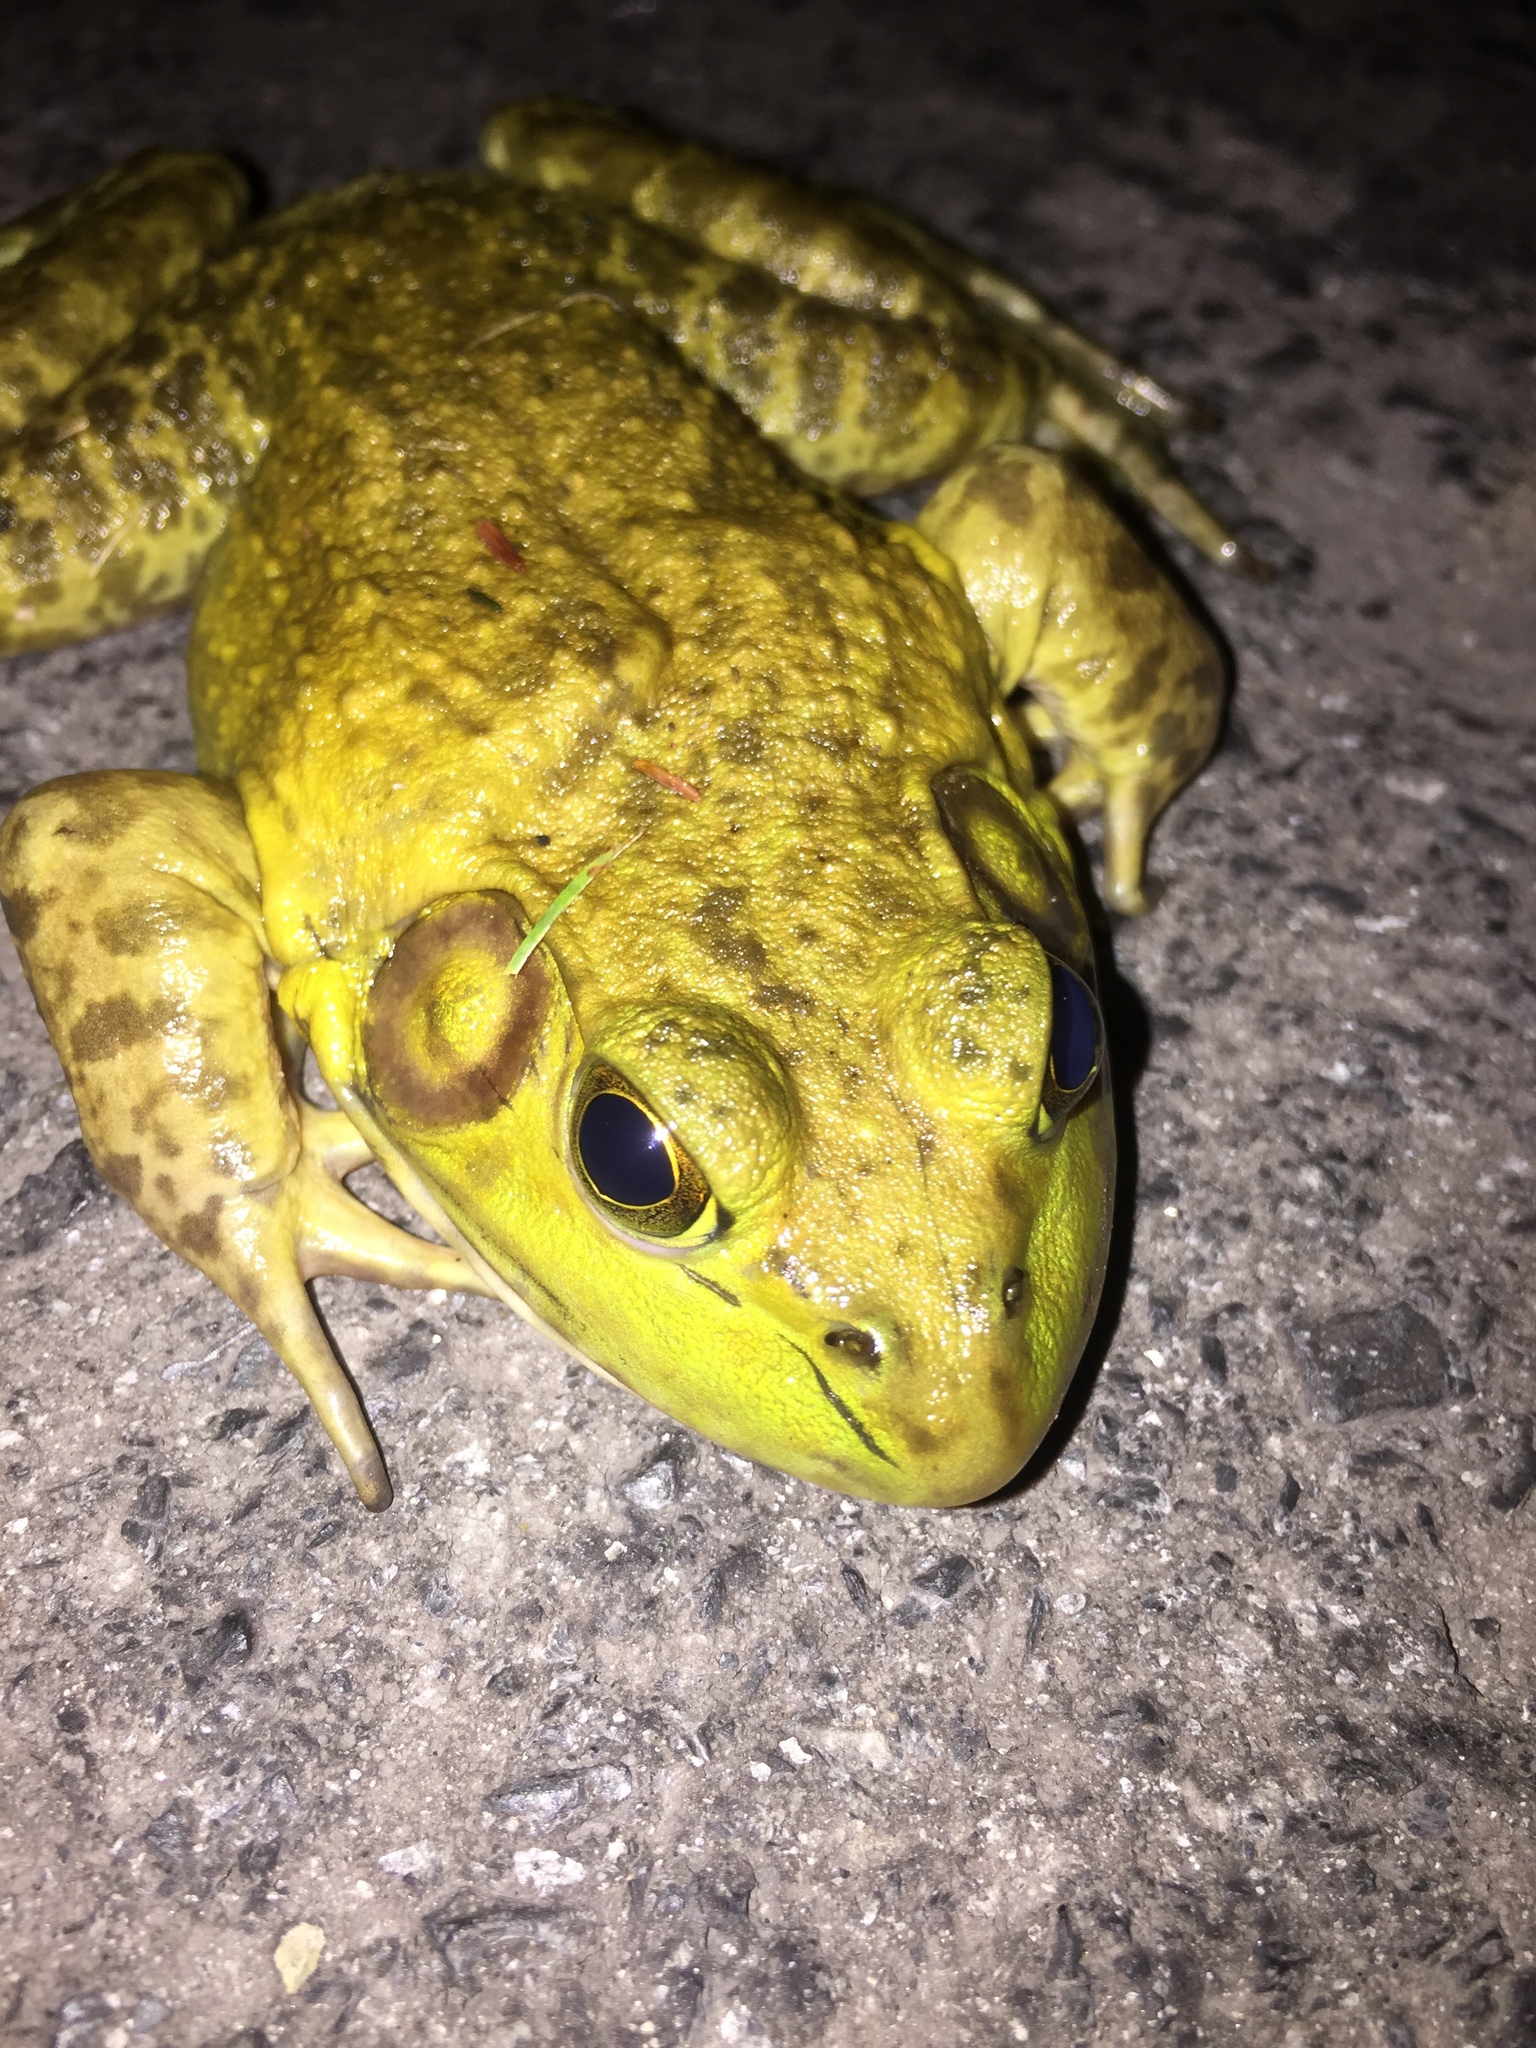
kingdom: Animalia
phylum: Chordata
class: Amphibia
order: Anura
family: Ranidae
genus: Lithobates
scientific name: Lithobates catesbeianus
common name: American bullfrog
